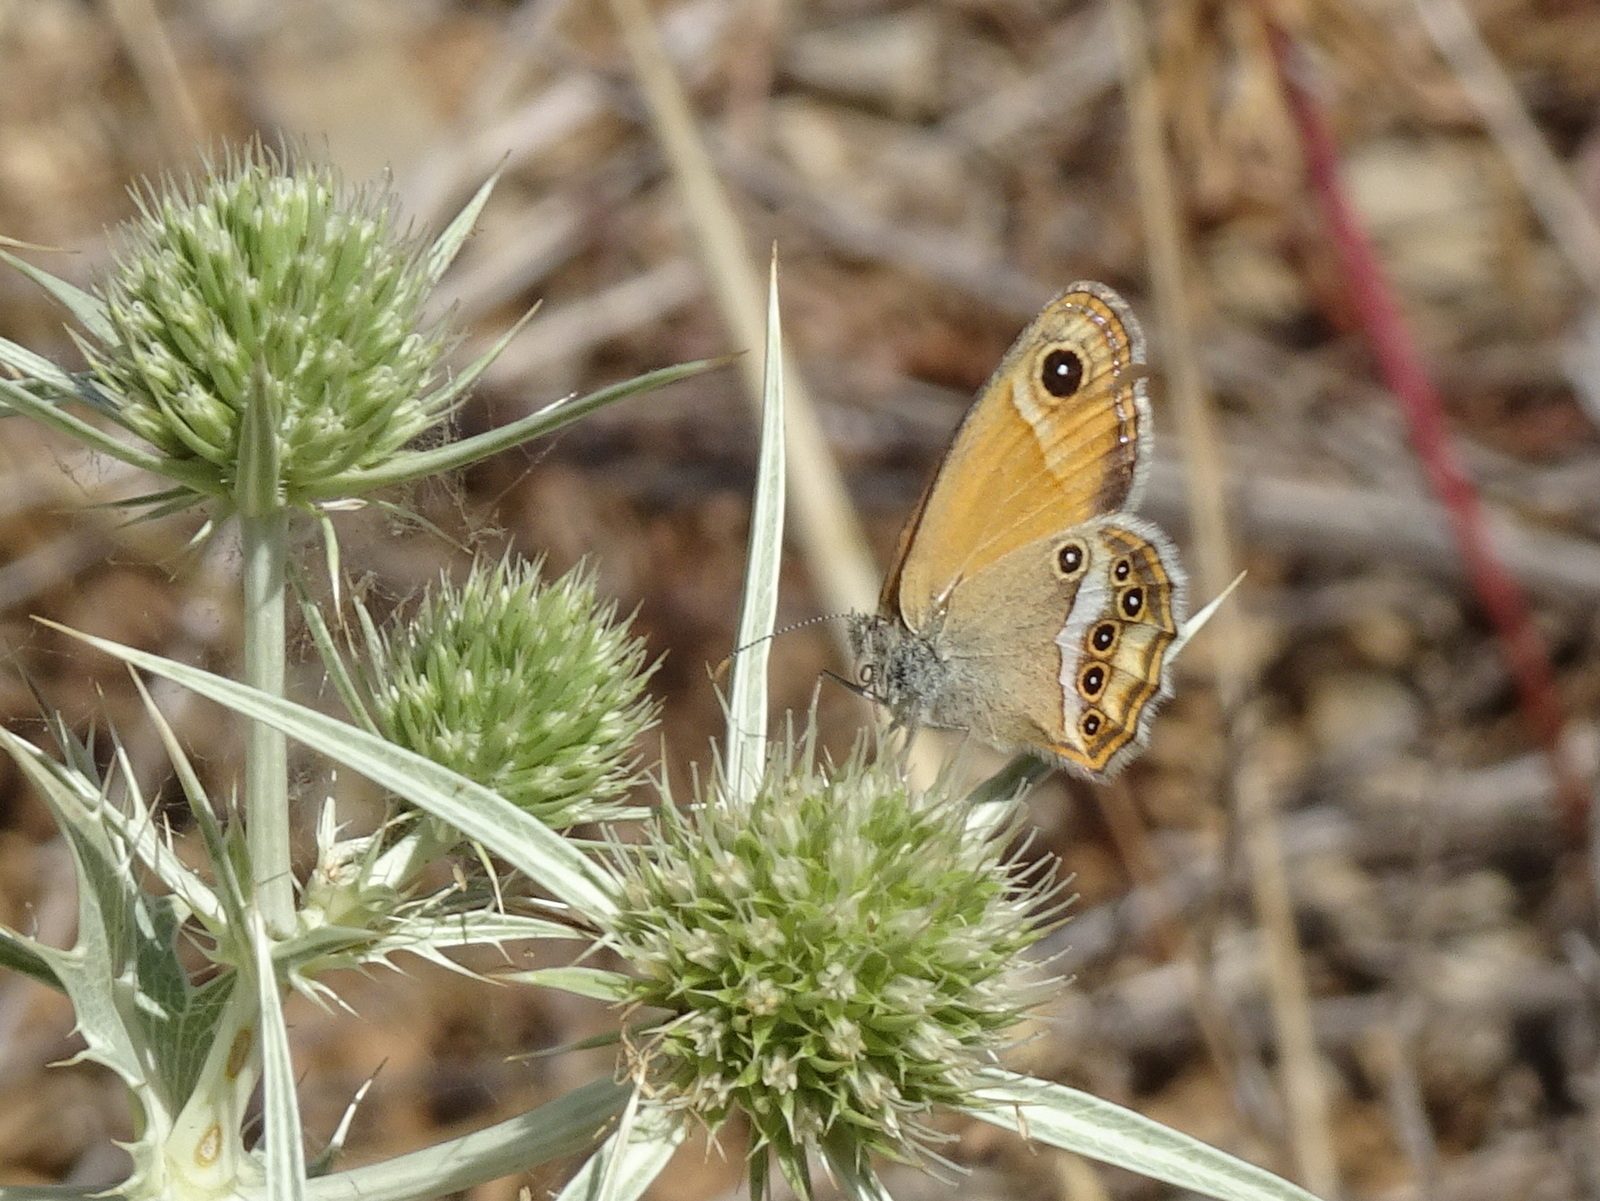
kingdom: Animalia
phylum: Arthropoda
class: Insecta
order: Lepidoptera
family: Nymphalidae
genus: Coenonympha
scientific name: Coenonympha dorus
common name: Dusky heath
